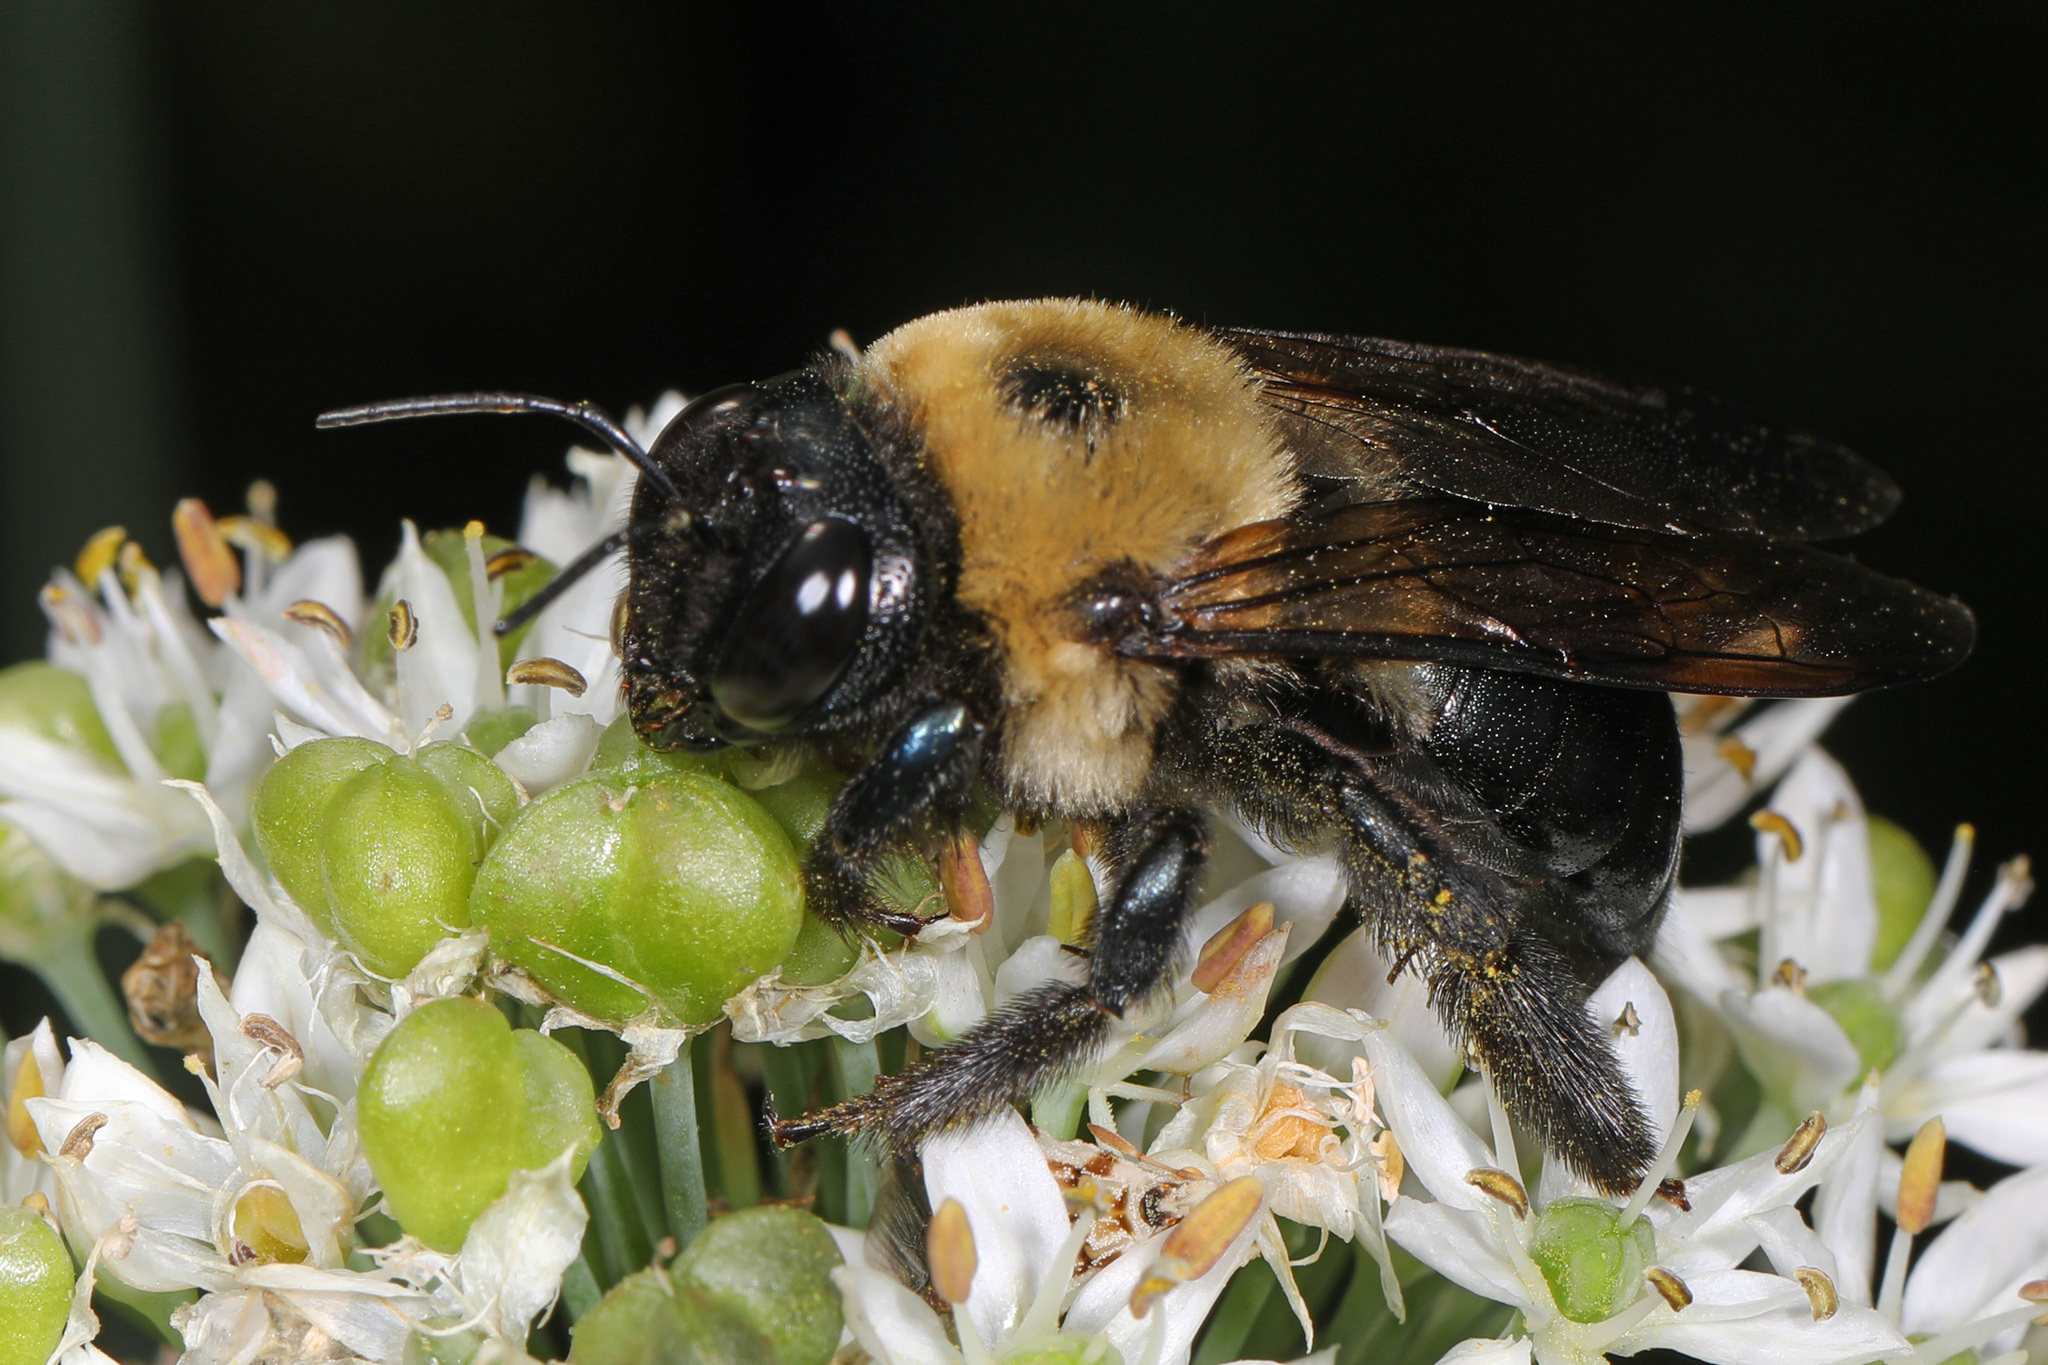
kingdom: Animalia
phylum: Arthropoda
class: Insecta
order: Hymenoptera
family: Apidae
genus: Xylocopa
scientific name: Xylocopa virginica
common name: Carpenter bee
